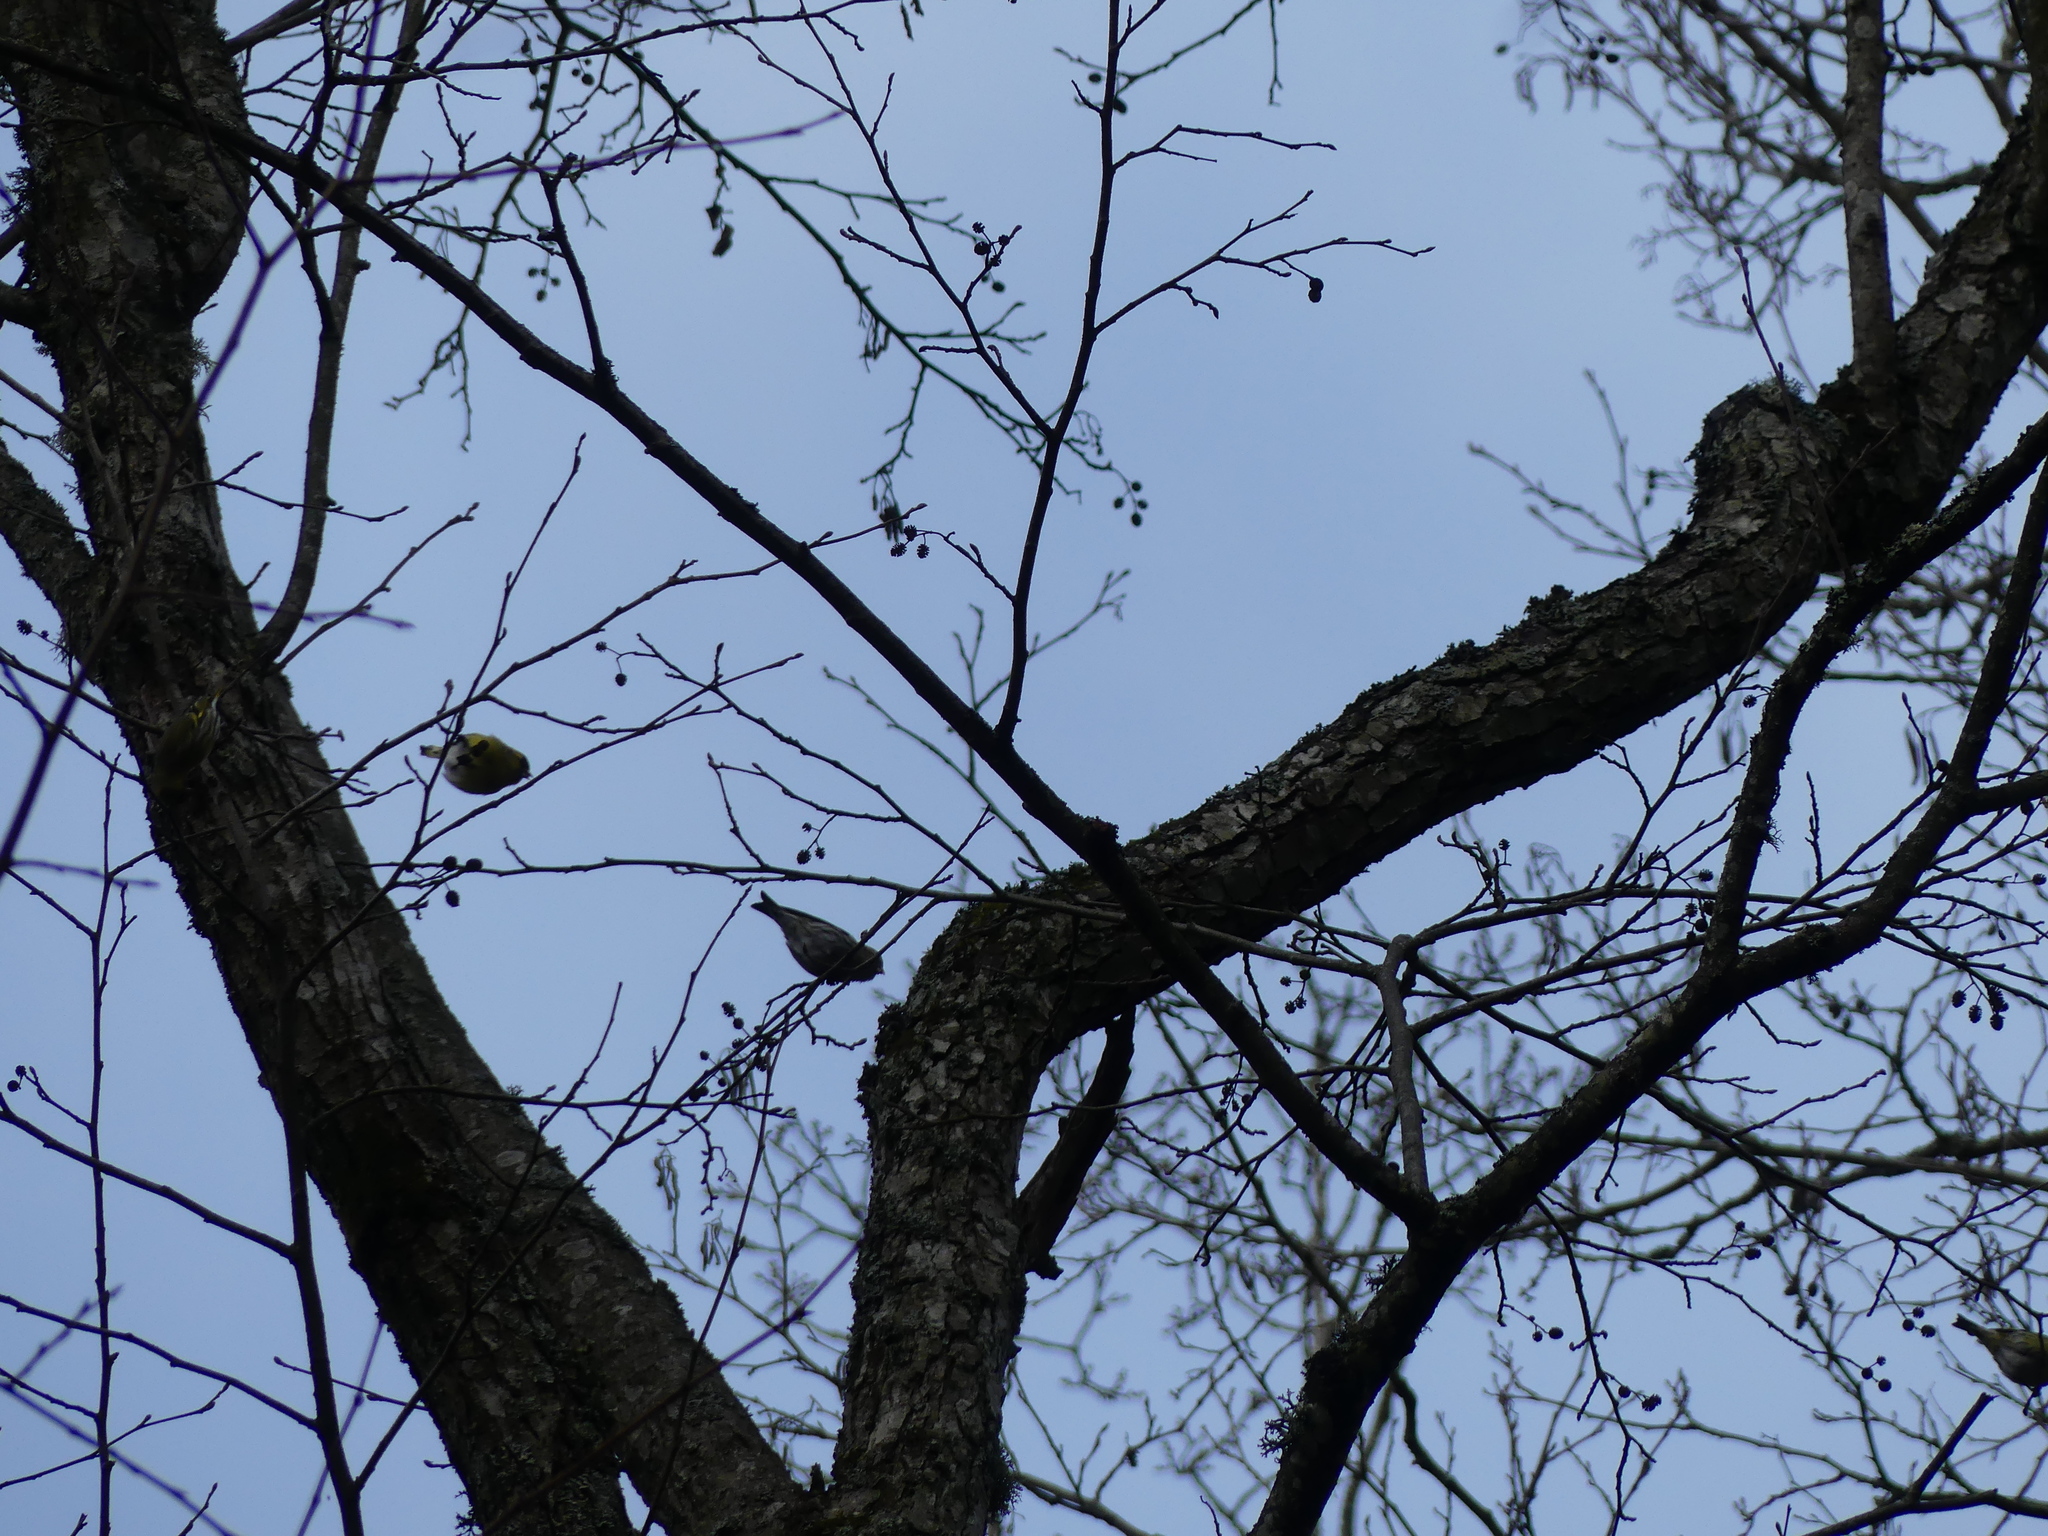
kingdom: Animalia
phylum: Chordata
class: Aves
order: Passeriformes
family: Fringillidae
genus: Spinus
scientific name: Spinus spinus
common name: Eurasian siskin
